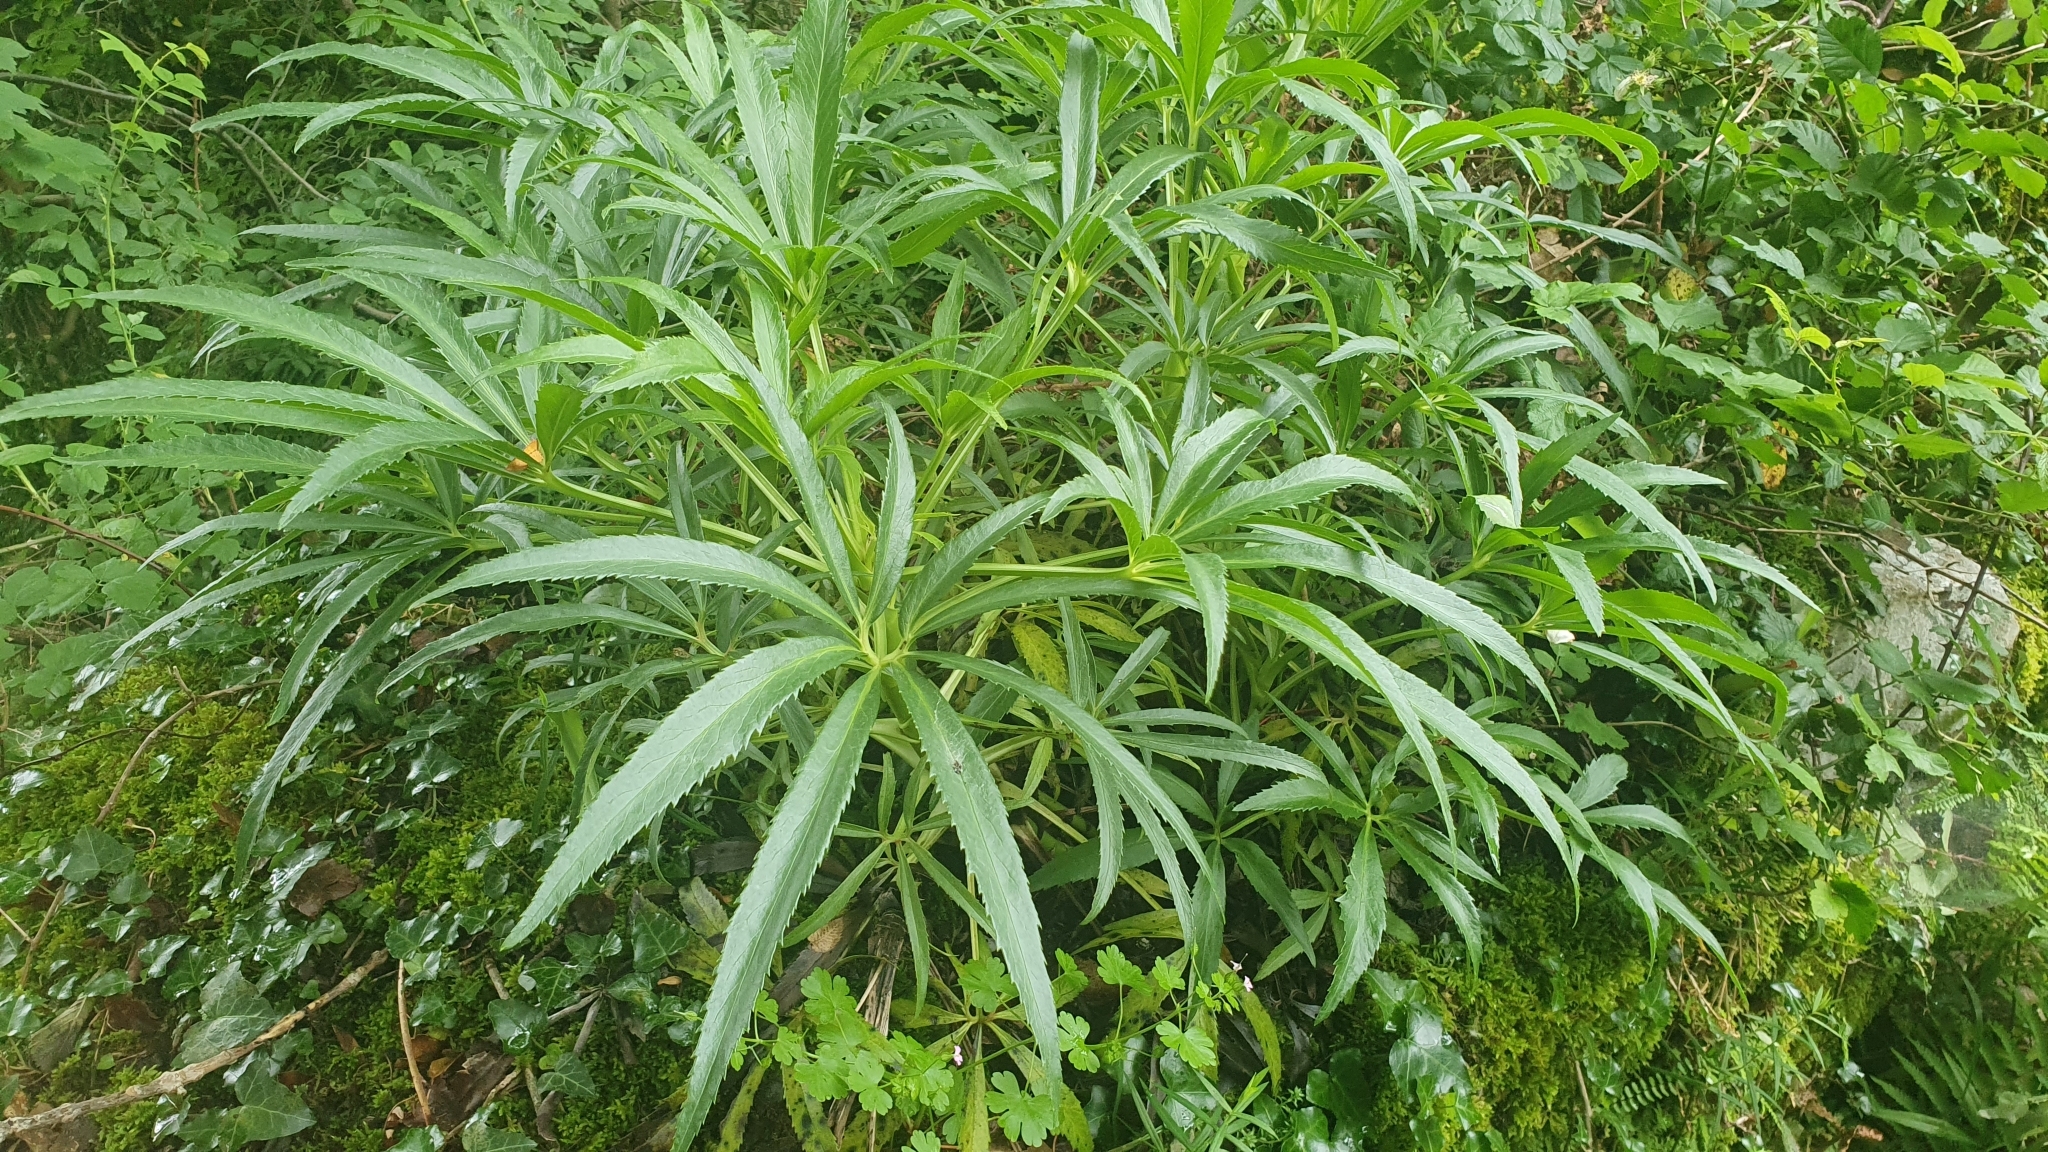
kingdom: Plantae
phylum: Tracheophyta
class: Magnoliopsida
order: Ranunculales
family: Ranunculaceae
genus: Helleborus
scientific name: Helleborus foetidus
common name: Stinking hellebore
